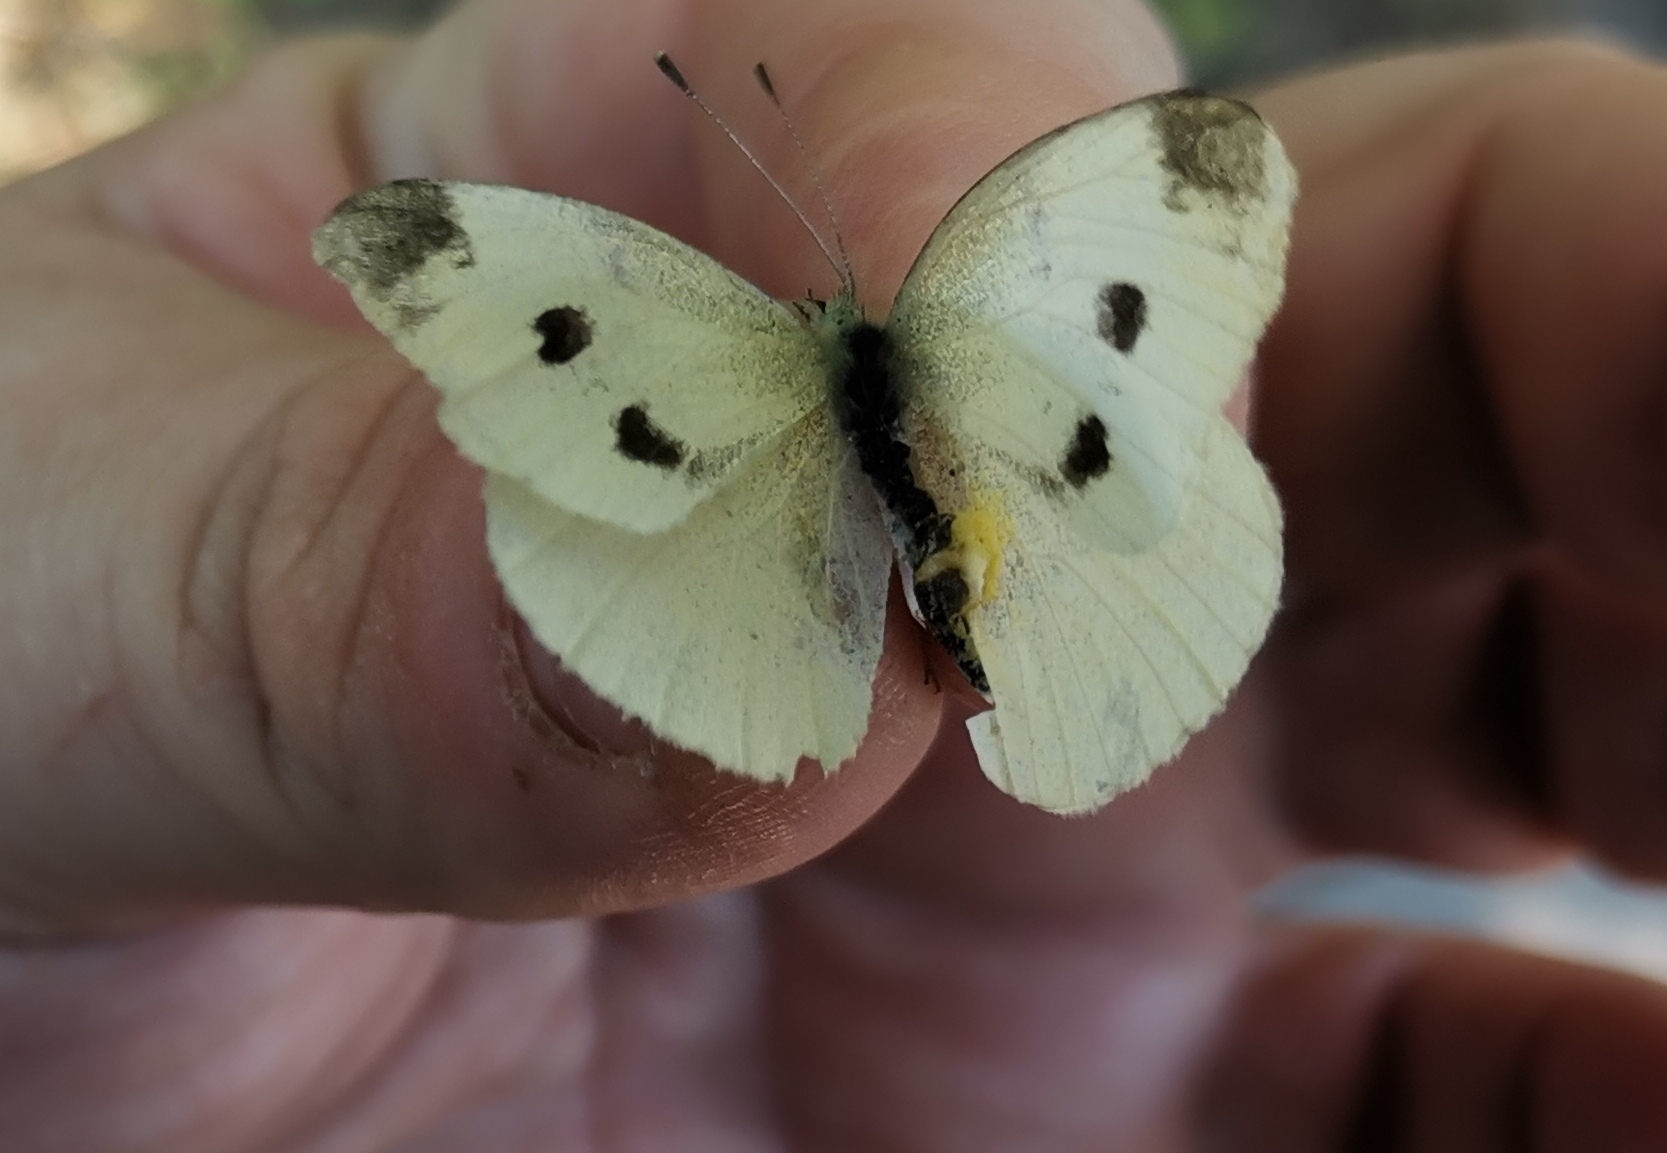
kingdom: Animalia
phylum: Arthropoda
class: Insecta
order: Lepidoptera
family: Pieridae
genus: Pieris
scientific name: Pieris rapae
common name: Small white
